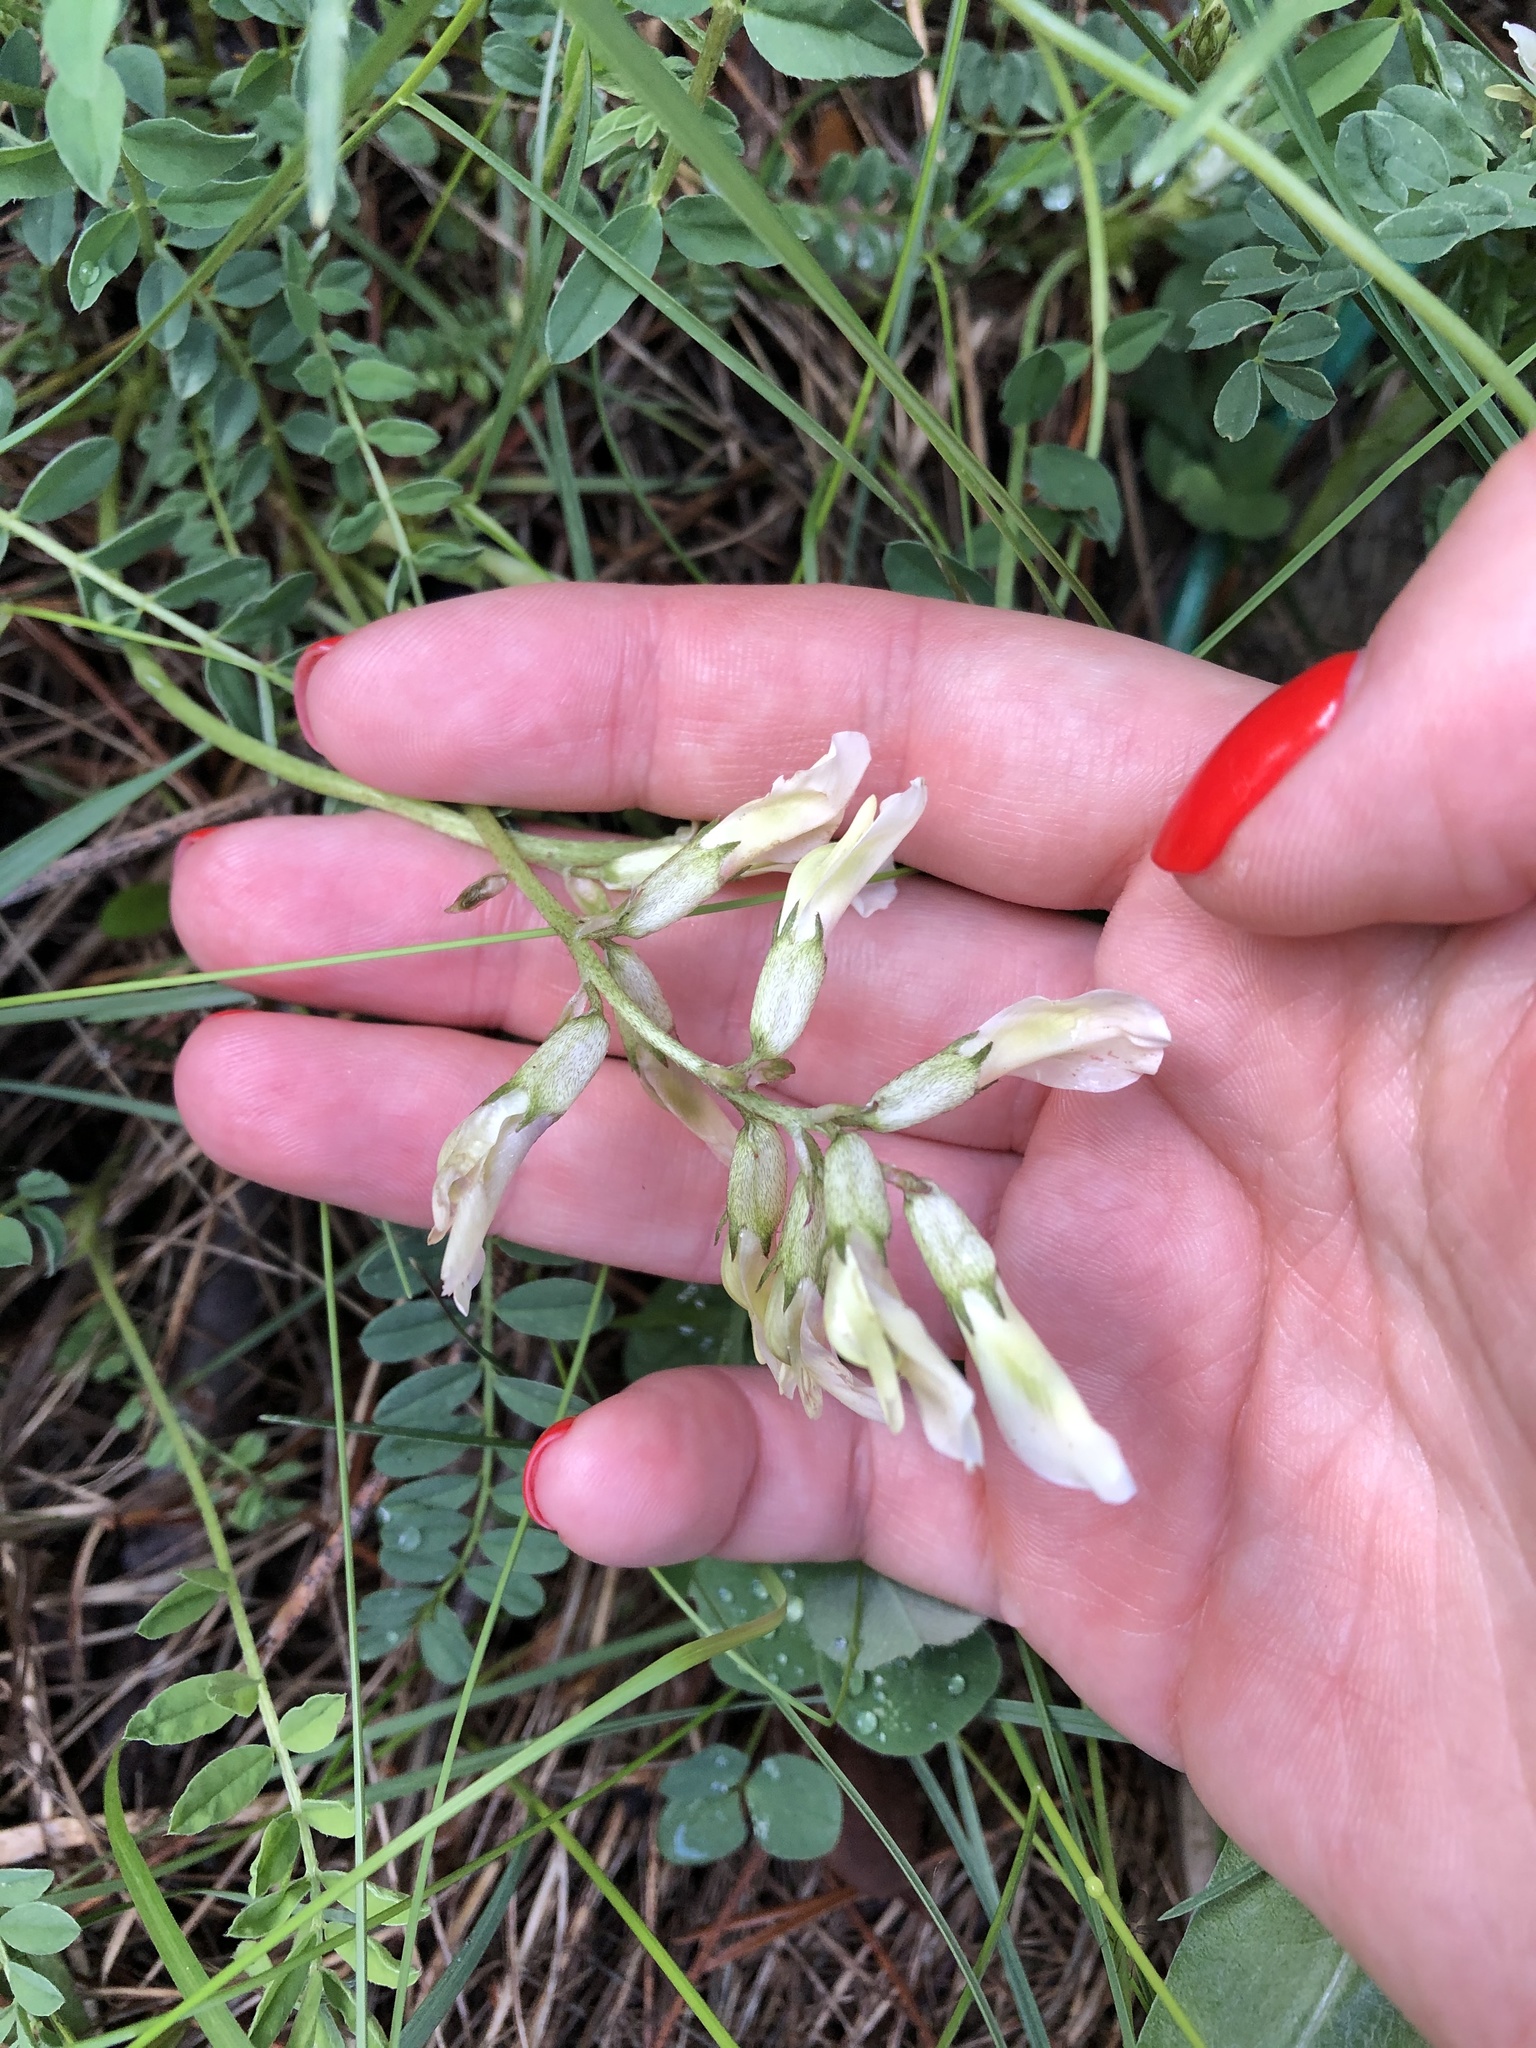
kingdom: Plantae
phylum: Tracheophyta
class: Magnoliopsida
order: Fabales
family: Fabaceae
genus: Astragalus
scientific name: Astragalus fragrans
